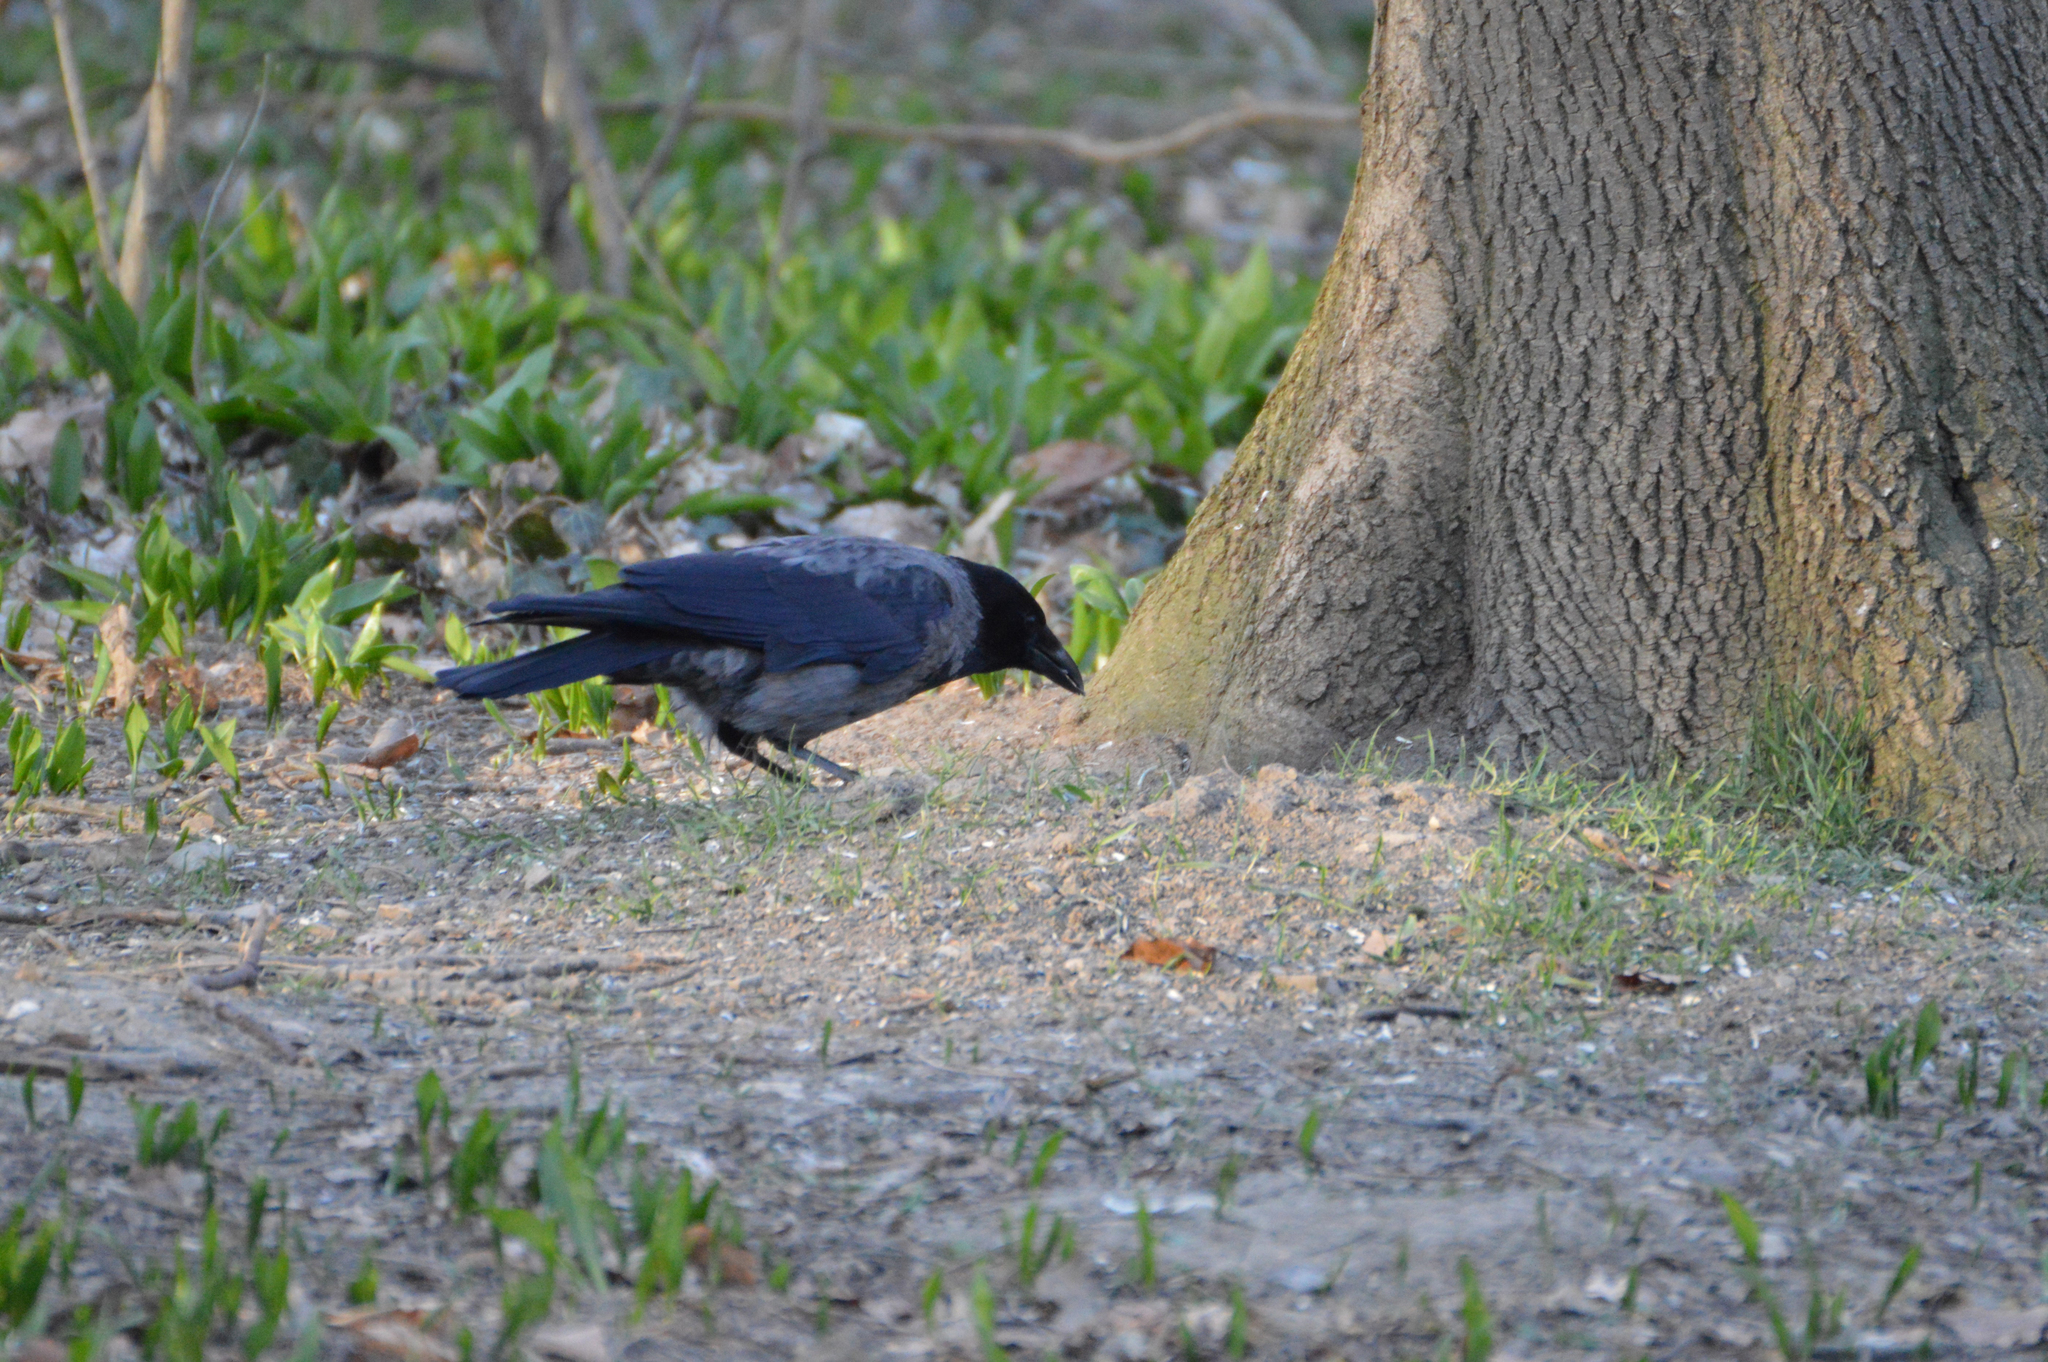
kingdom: Animalia
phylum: Chordata
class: Aves
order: Passeriformes
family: Corvidae
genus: Corvus
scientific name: Corvus
